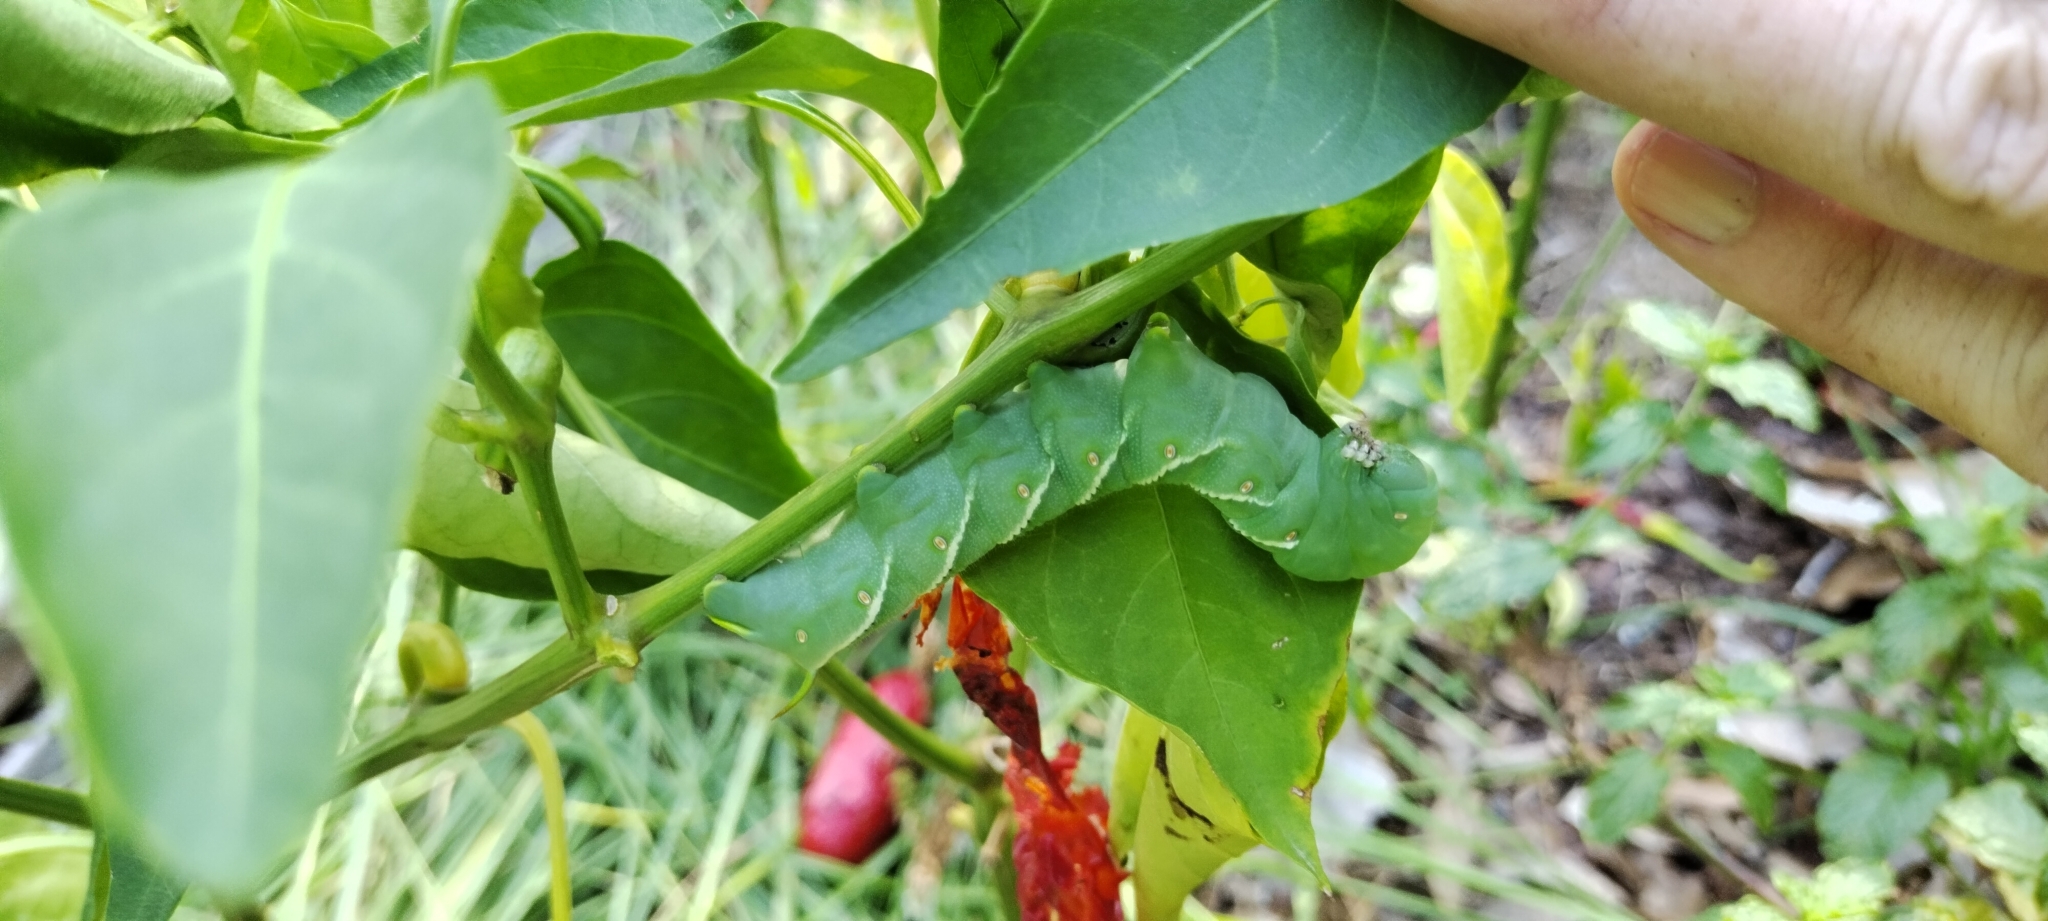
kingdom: Animalia
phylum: Arthropoda
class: Insecta
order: Lepidoptera
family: Sphingidae
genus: Manduca
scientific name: Manduca sexta
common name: Carolina sphinx
